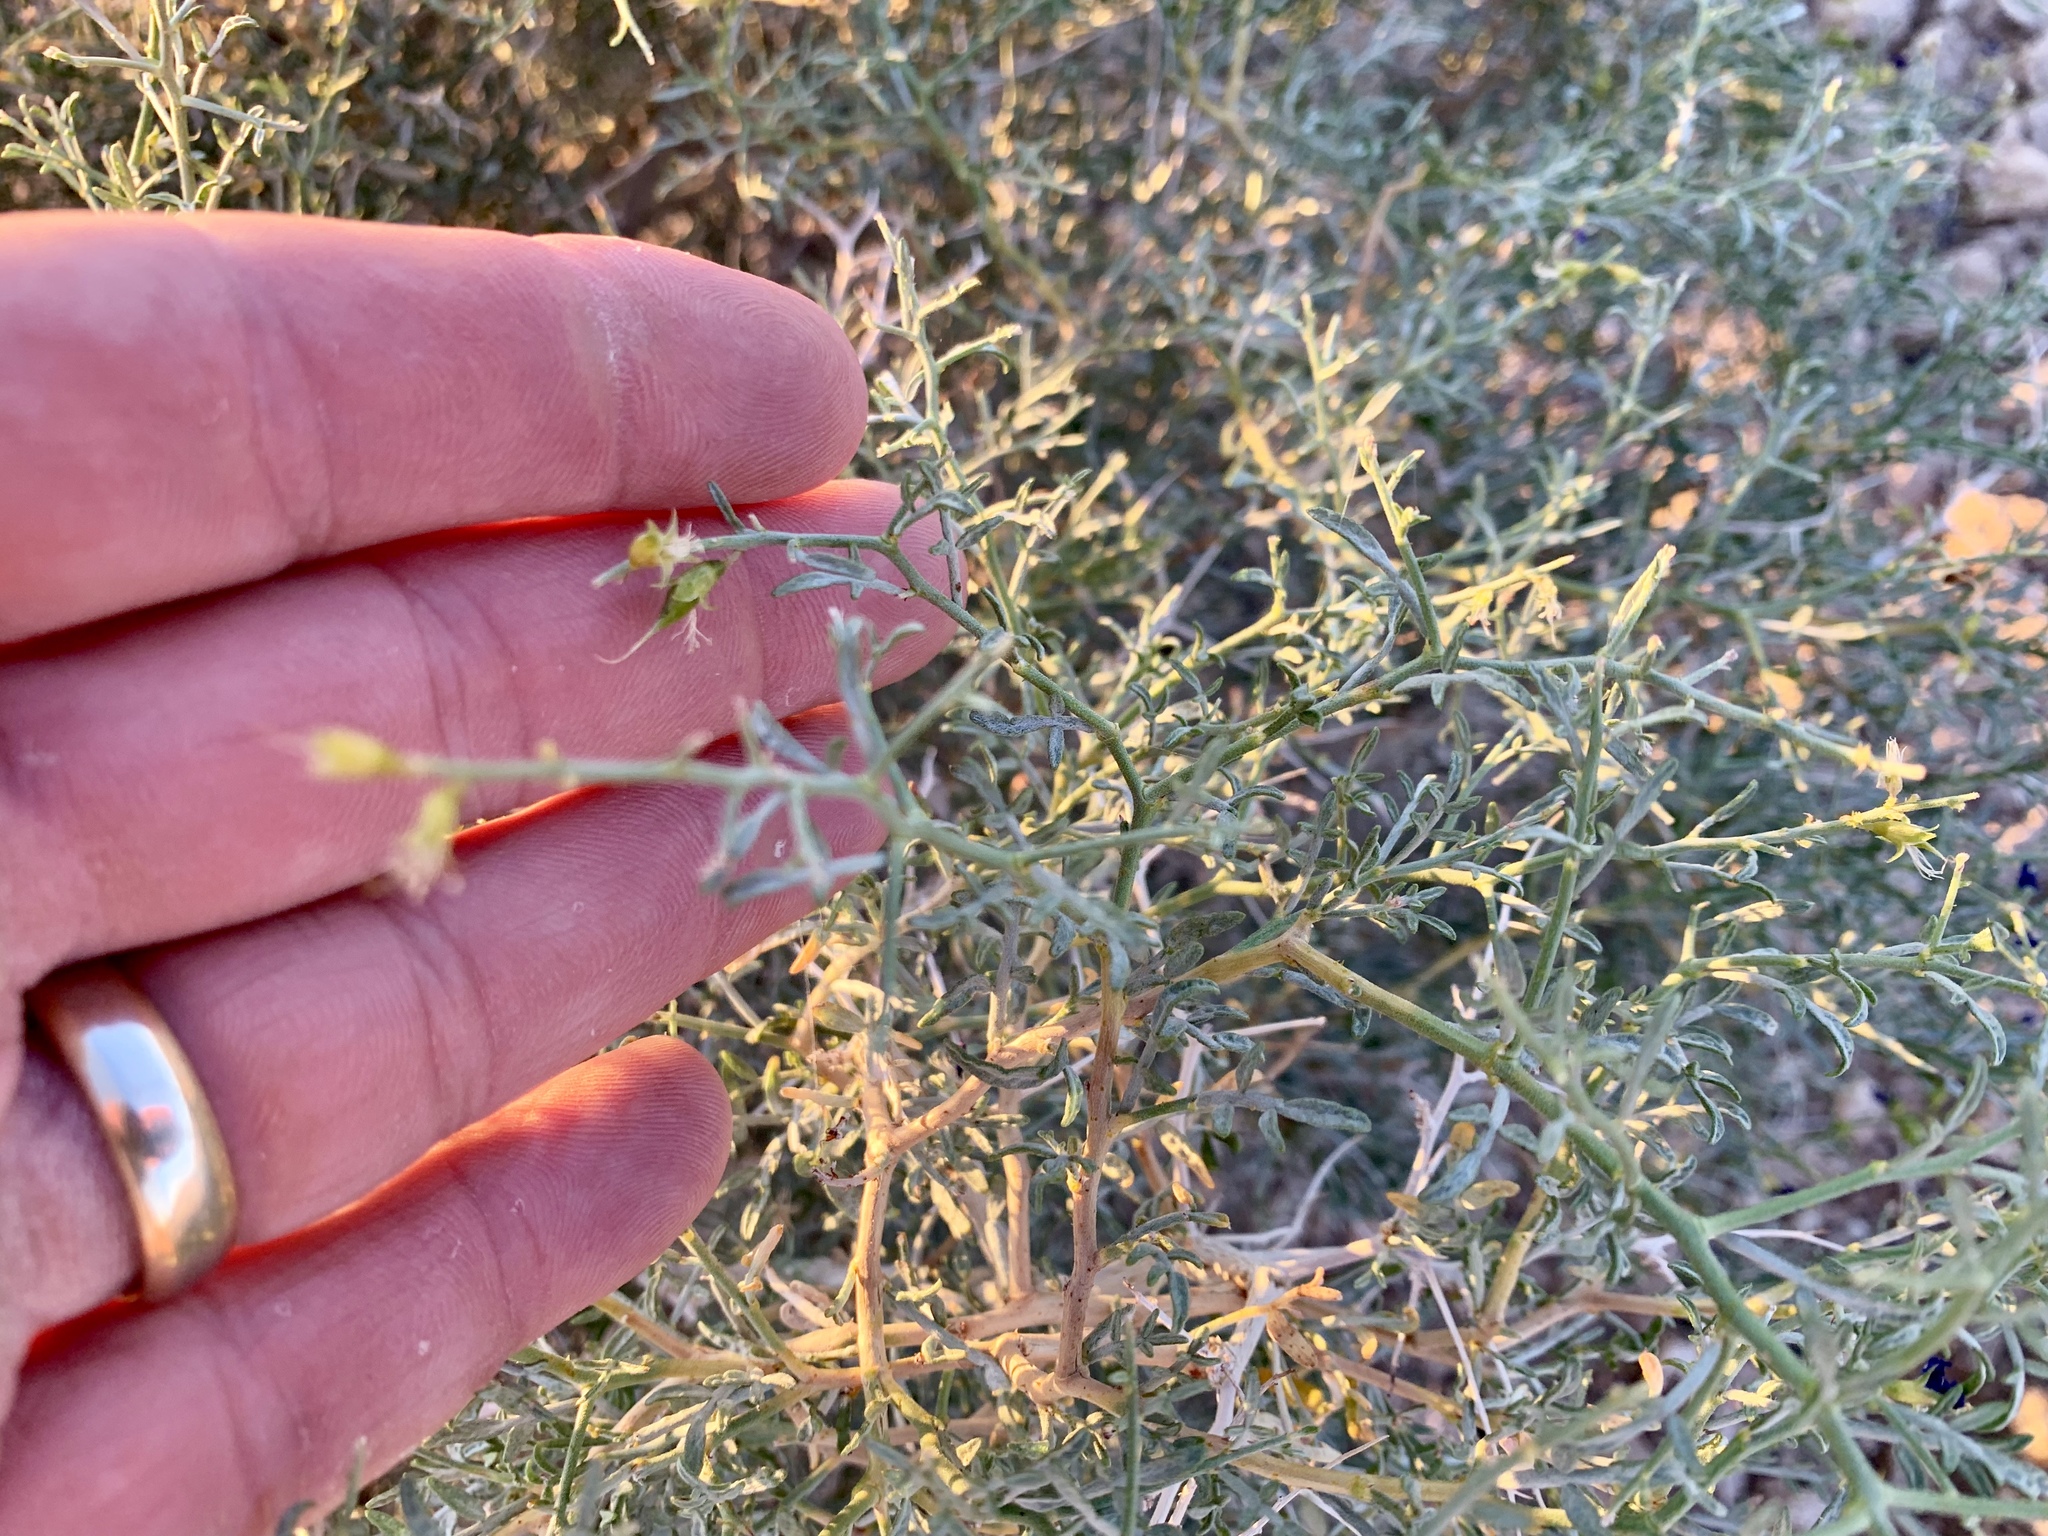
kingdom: Plantae
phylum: Tracheophyta
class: Magnoliopsida
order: Fabales
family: Fabaceae
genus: Psorothamnus
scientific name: Psorothamnus fremontii
